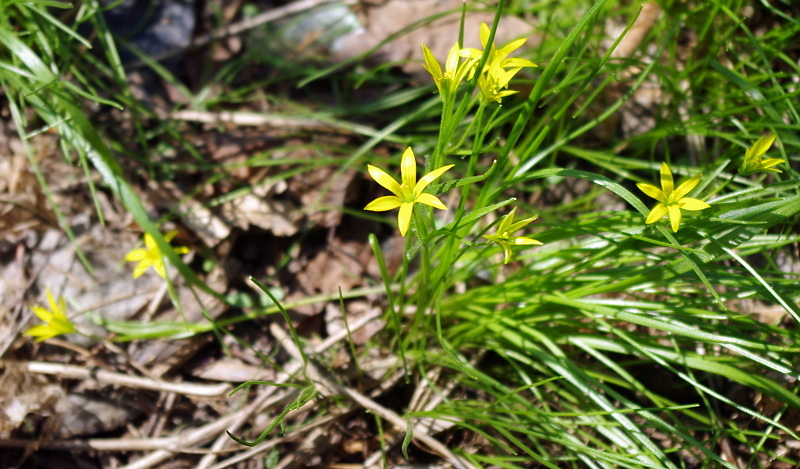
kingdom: Plantae
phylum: Tracheophyta
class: Liliopsida
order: Liliales
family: Liliaceae
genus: Gagea
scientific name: Gagea minima
